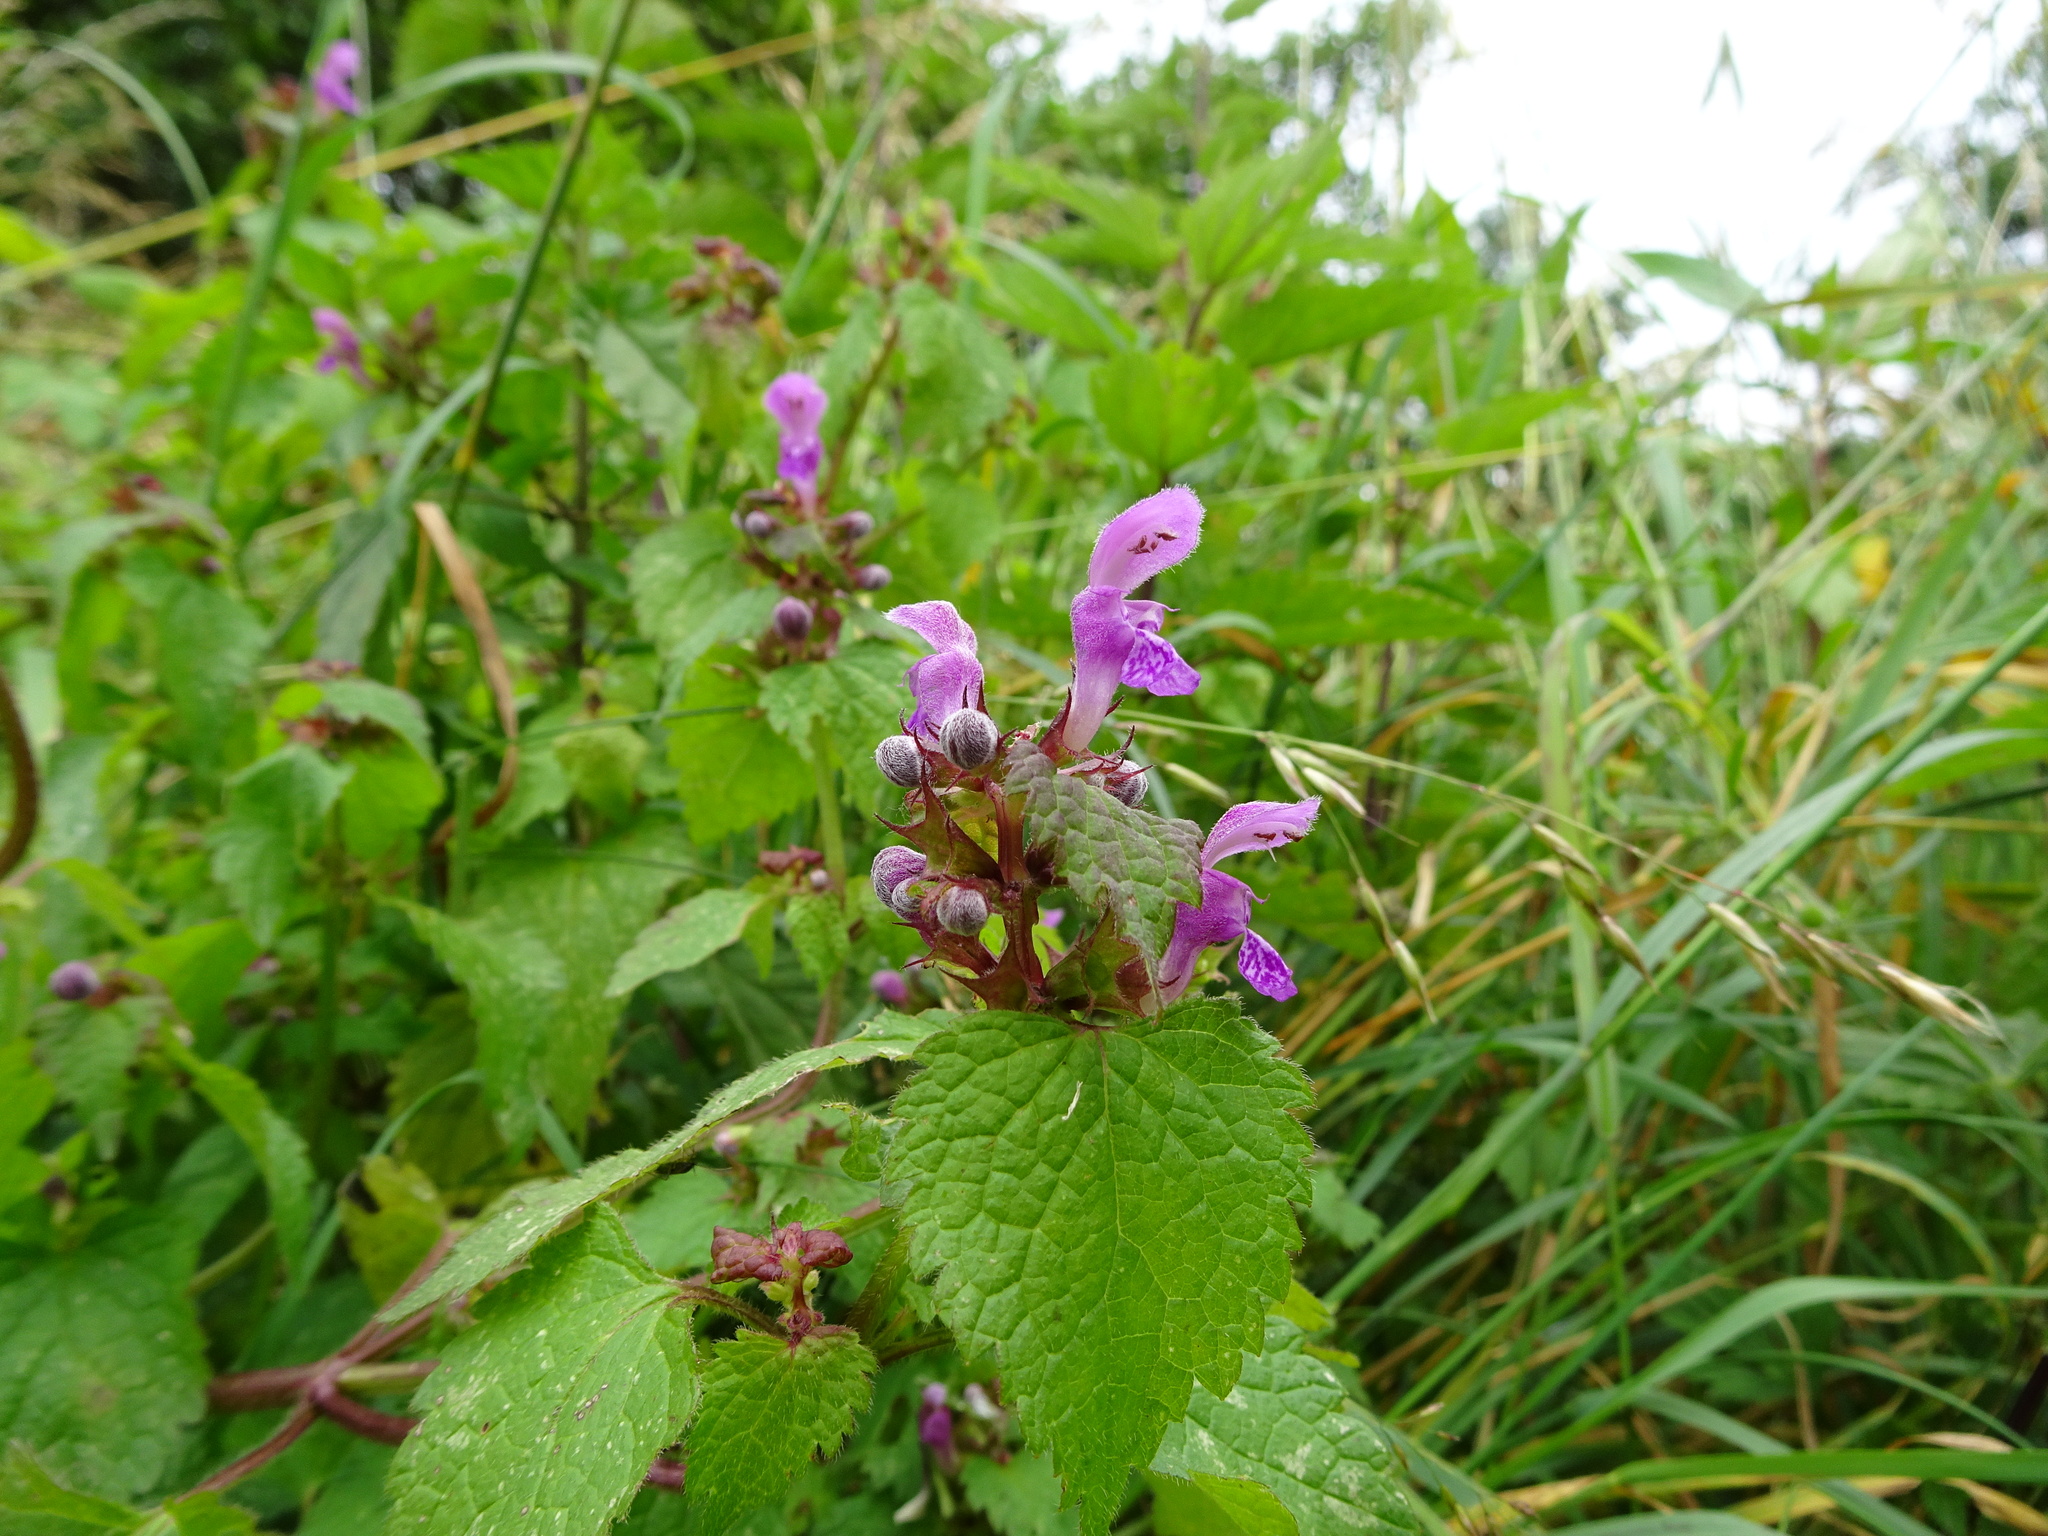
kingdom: Plantae
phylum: Tracheophyta
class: Magnoliopsida
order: Lamiales
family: Lamiaceae
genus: Lamium
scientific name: Lamium maculatum
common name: Spotted dead-nettle
